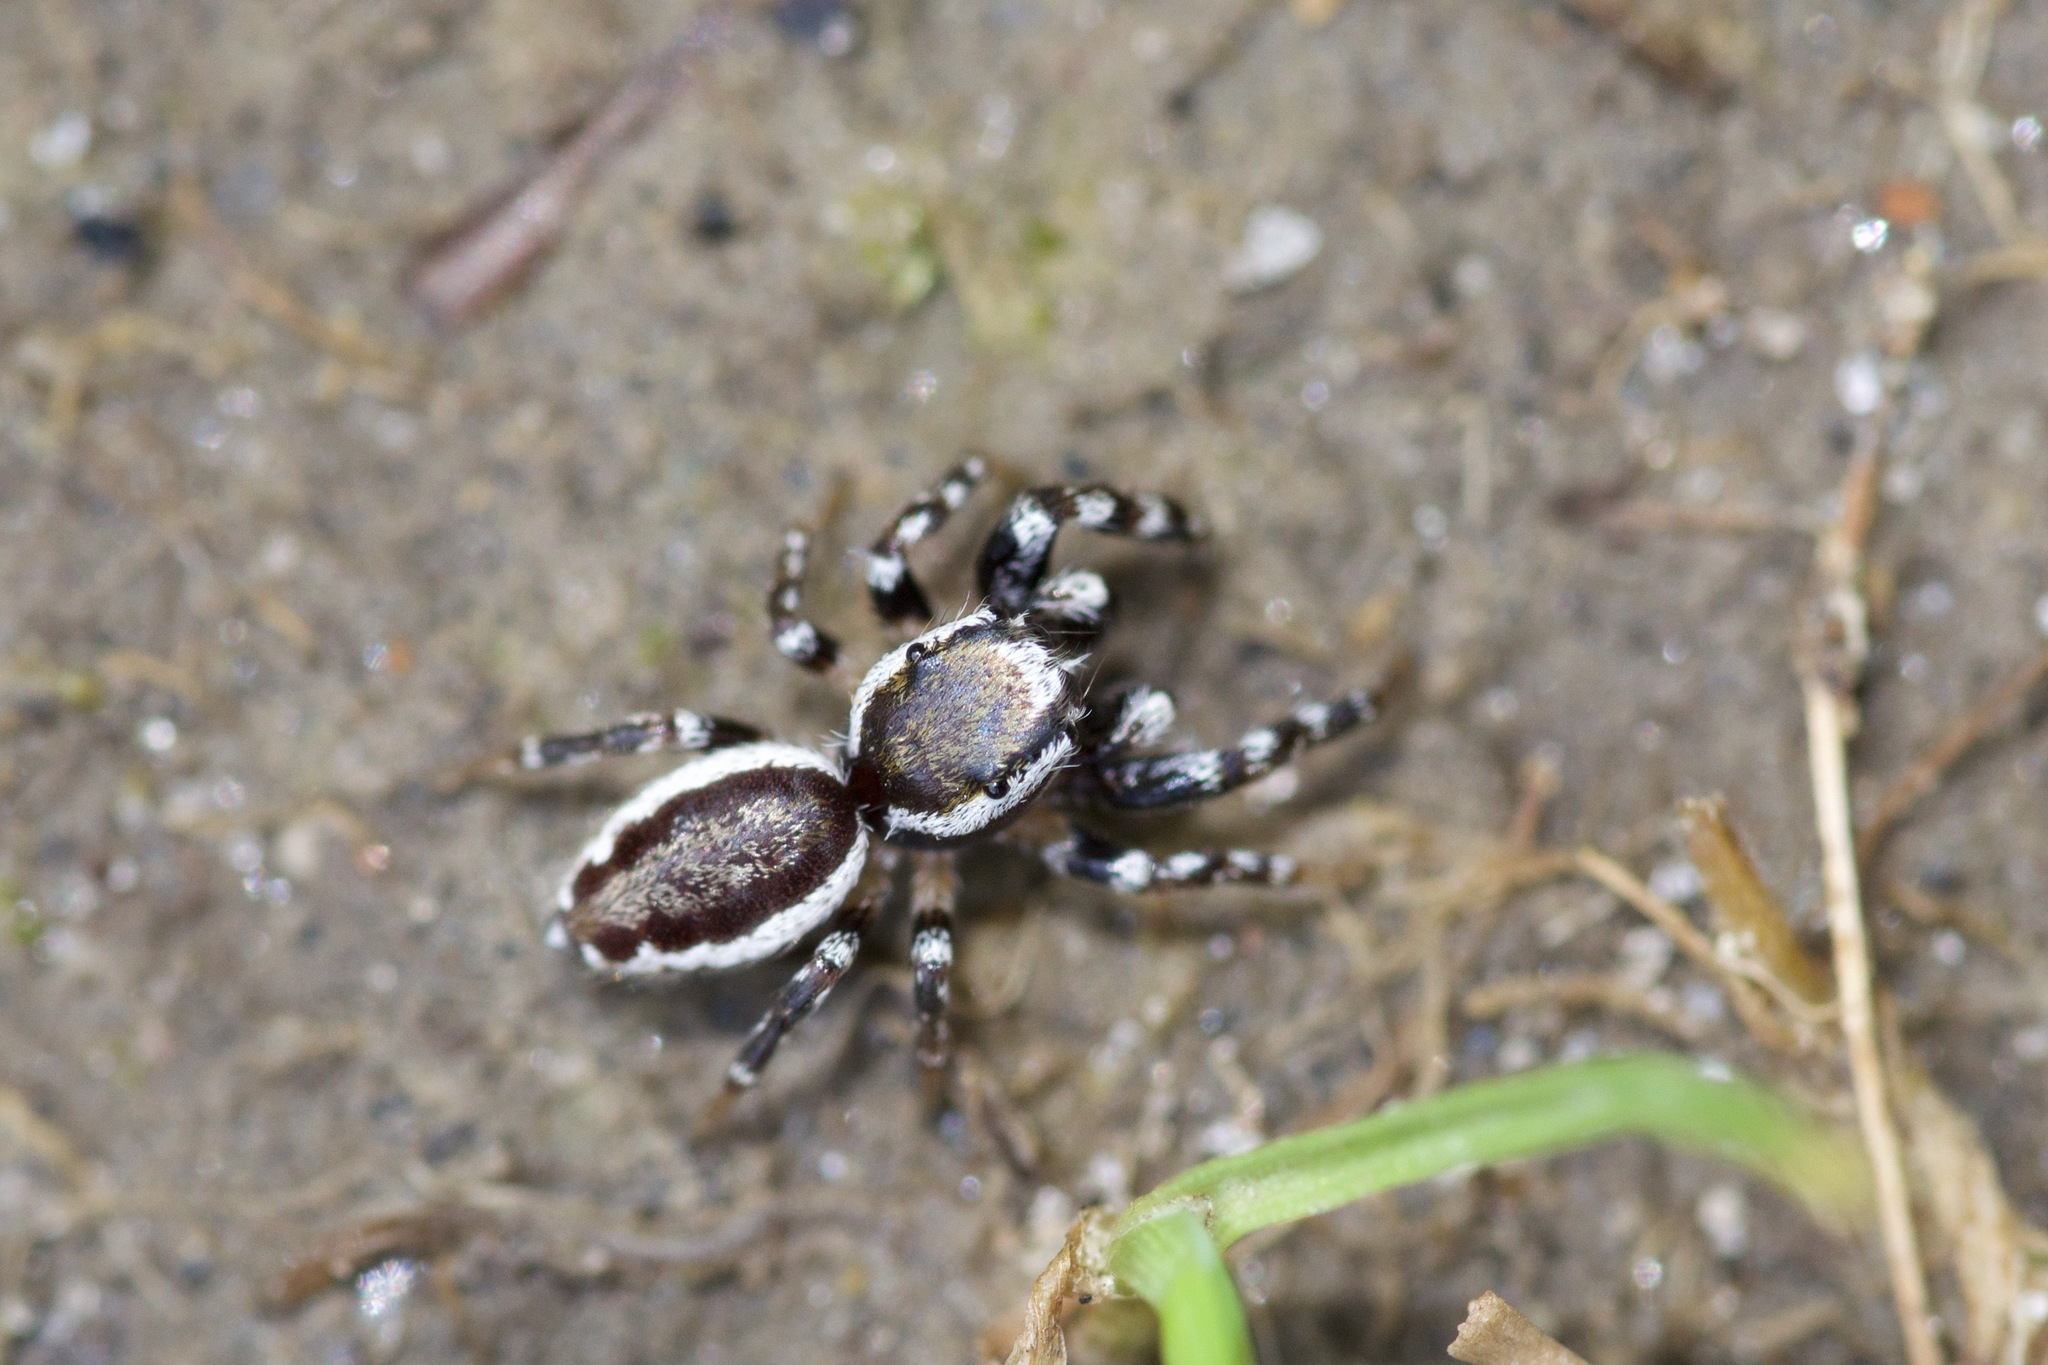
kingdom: Animalia
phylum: Arthropoda
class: Arachnida
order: Araneae
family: Salticidae
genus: Pelegrina
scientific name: Pelegrina proterva
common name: Common white-cheeked jumping spider
